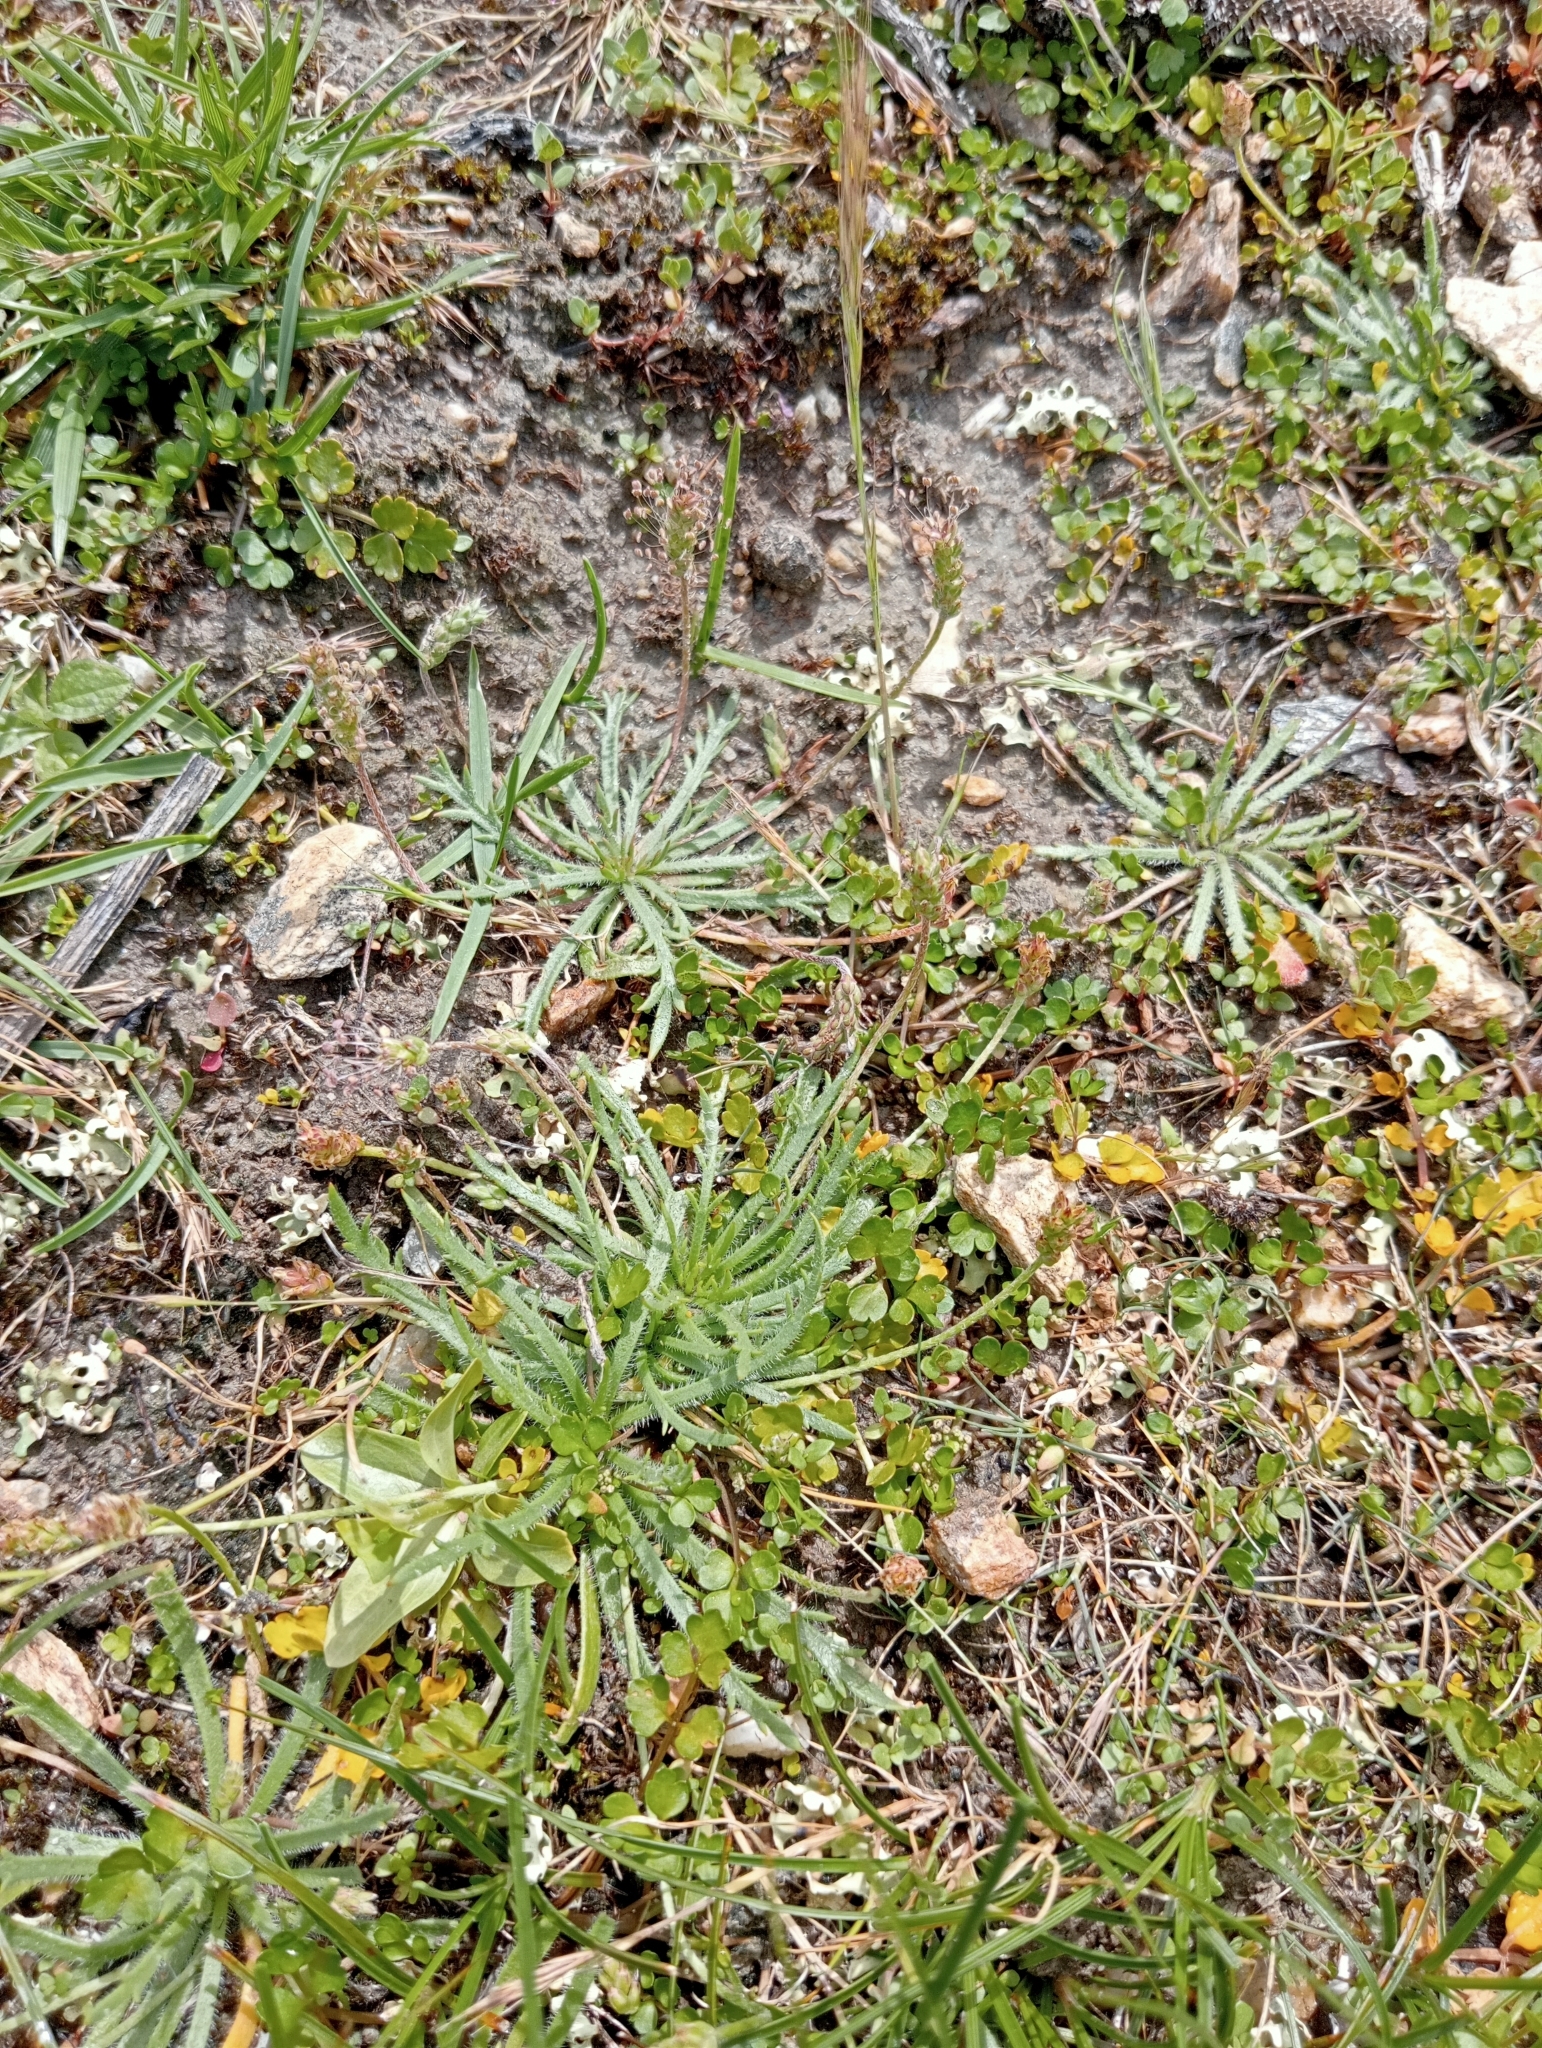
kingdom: Plantae
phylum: Tracheophyta
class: Magnoliopsida
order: Lamiales
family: Plantaginaceae
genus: Plantago
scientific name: Plantago coronopus
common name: Buck's-horn plantain
